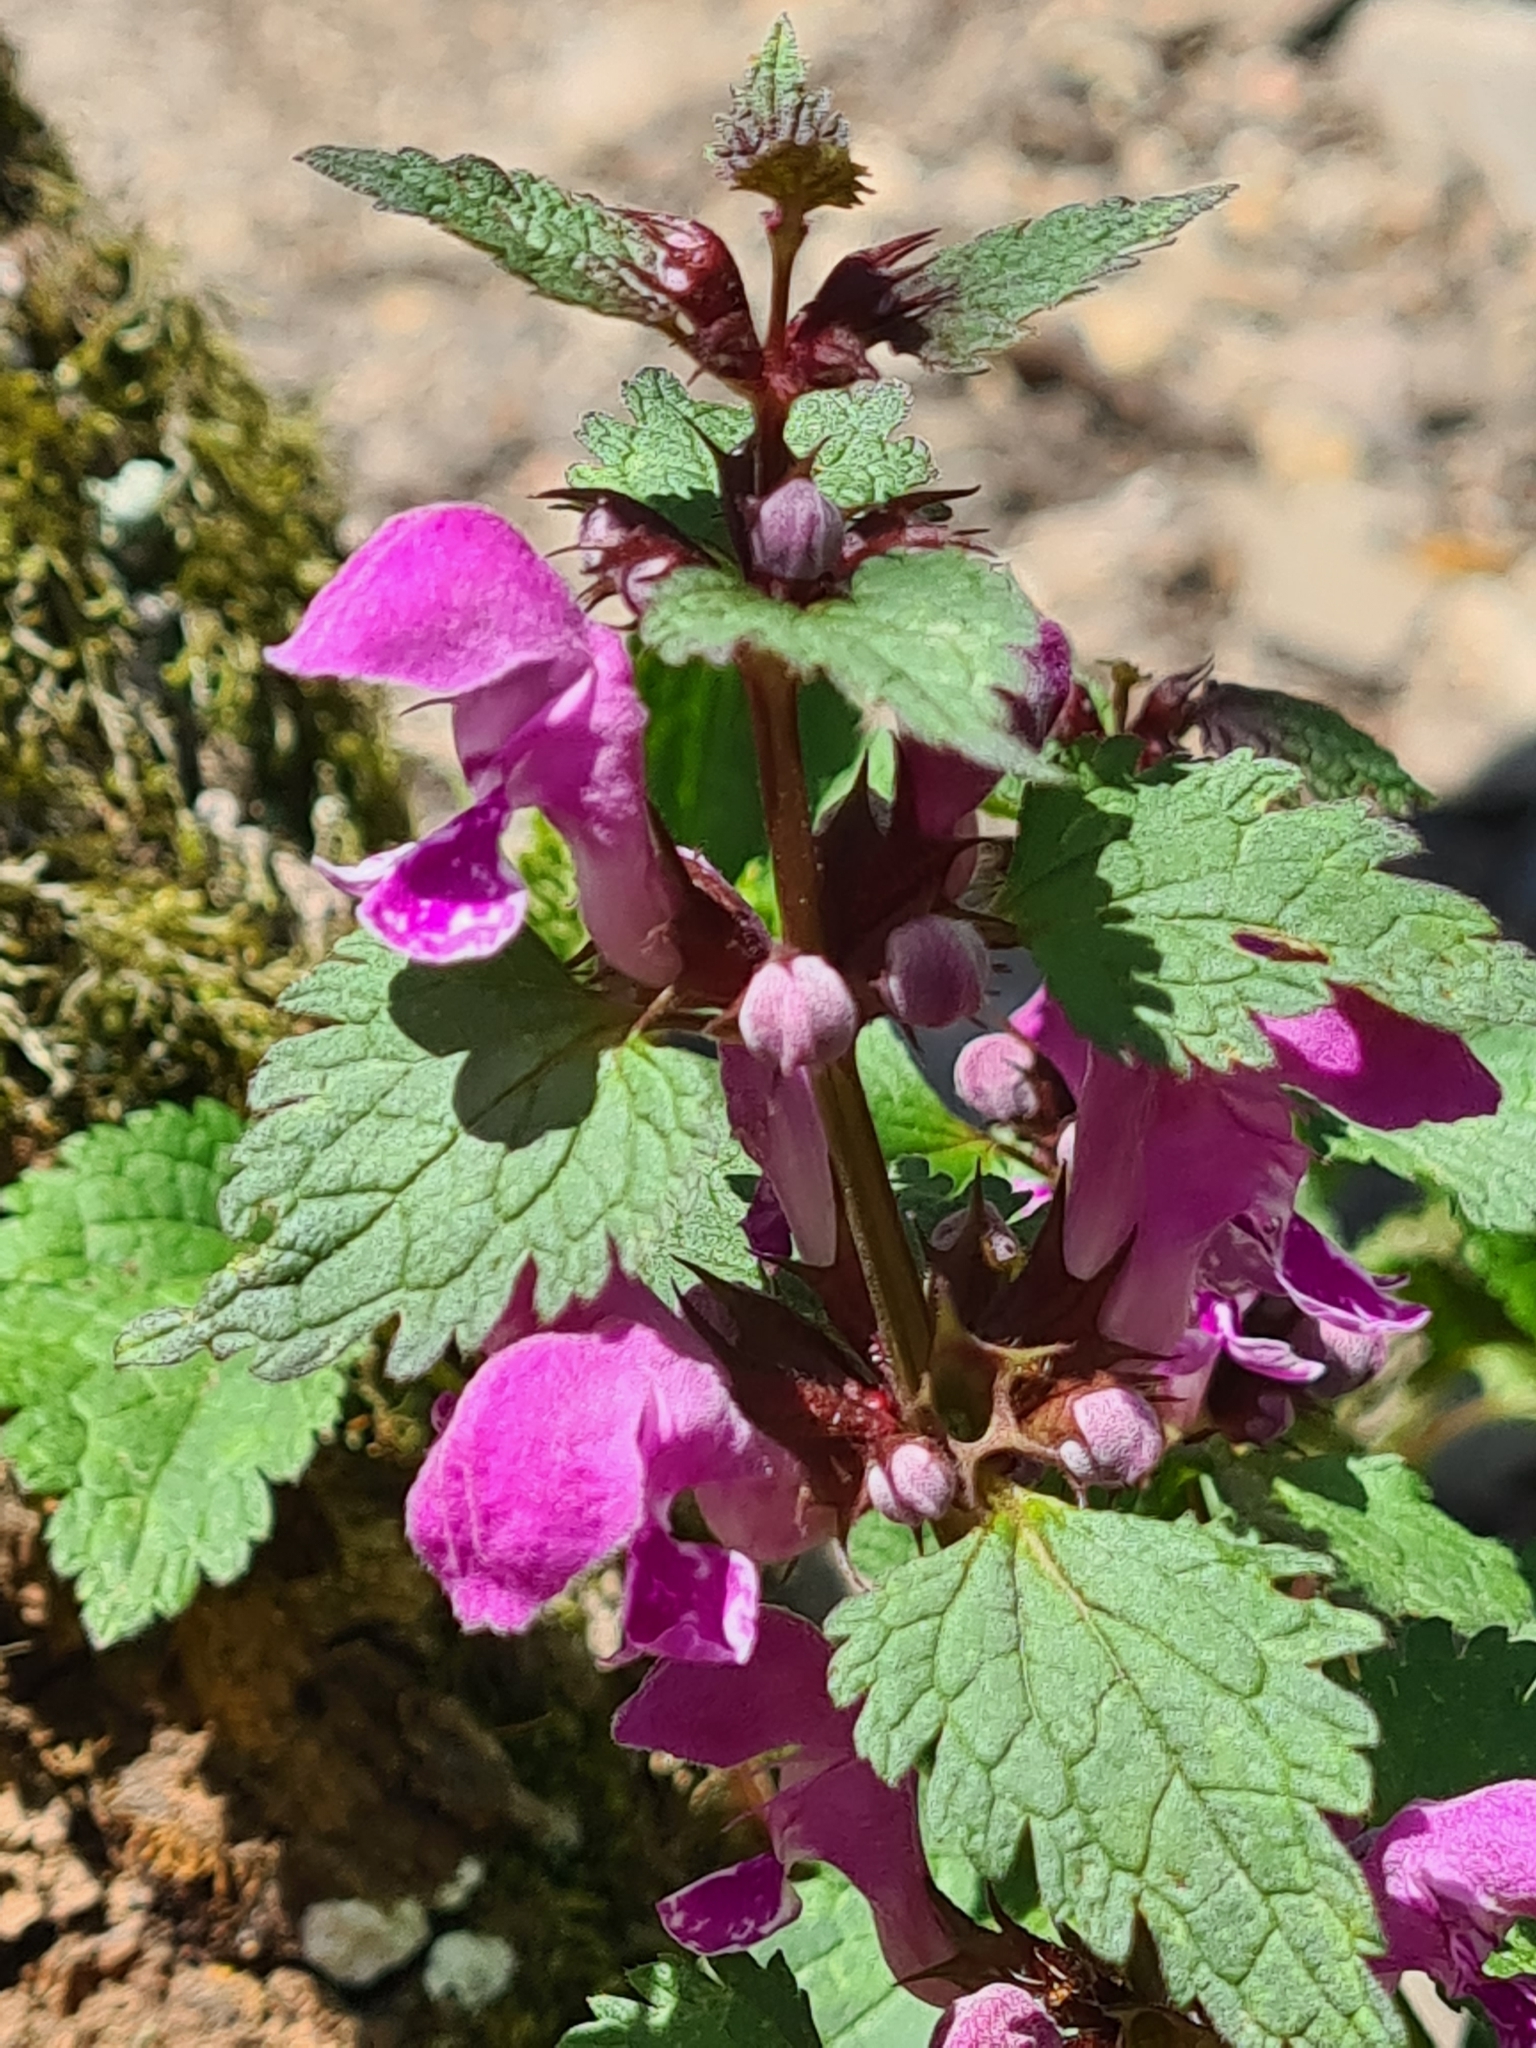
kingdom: Plantae
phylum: Tracheophyta
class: Magnoliopsida
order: Lamiales
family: Lamiaceae
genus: Lamium
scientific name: Lamium maculatum
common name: Spotted dead-nettle
